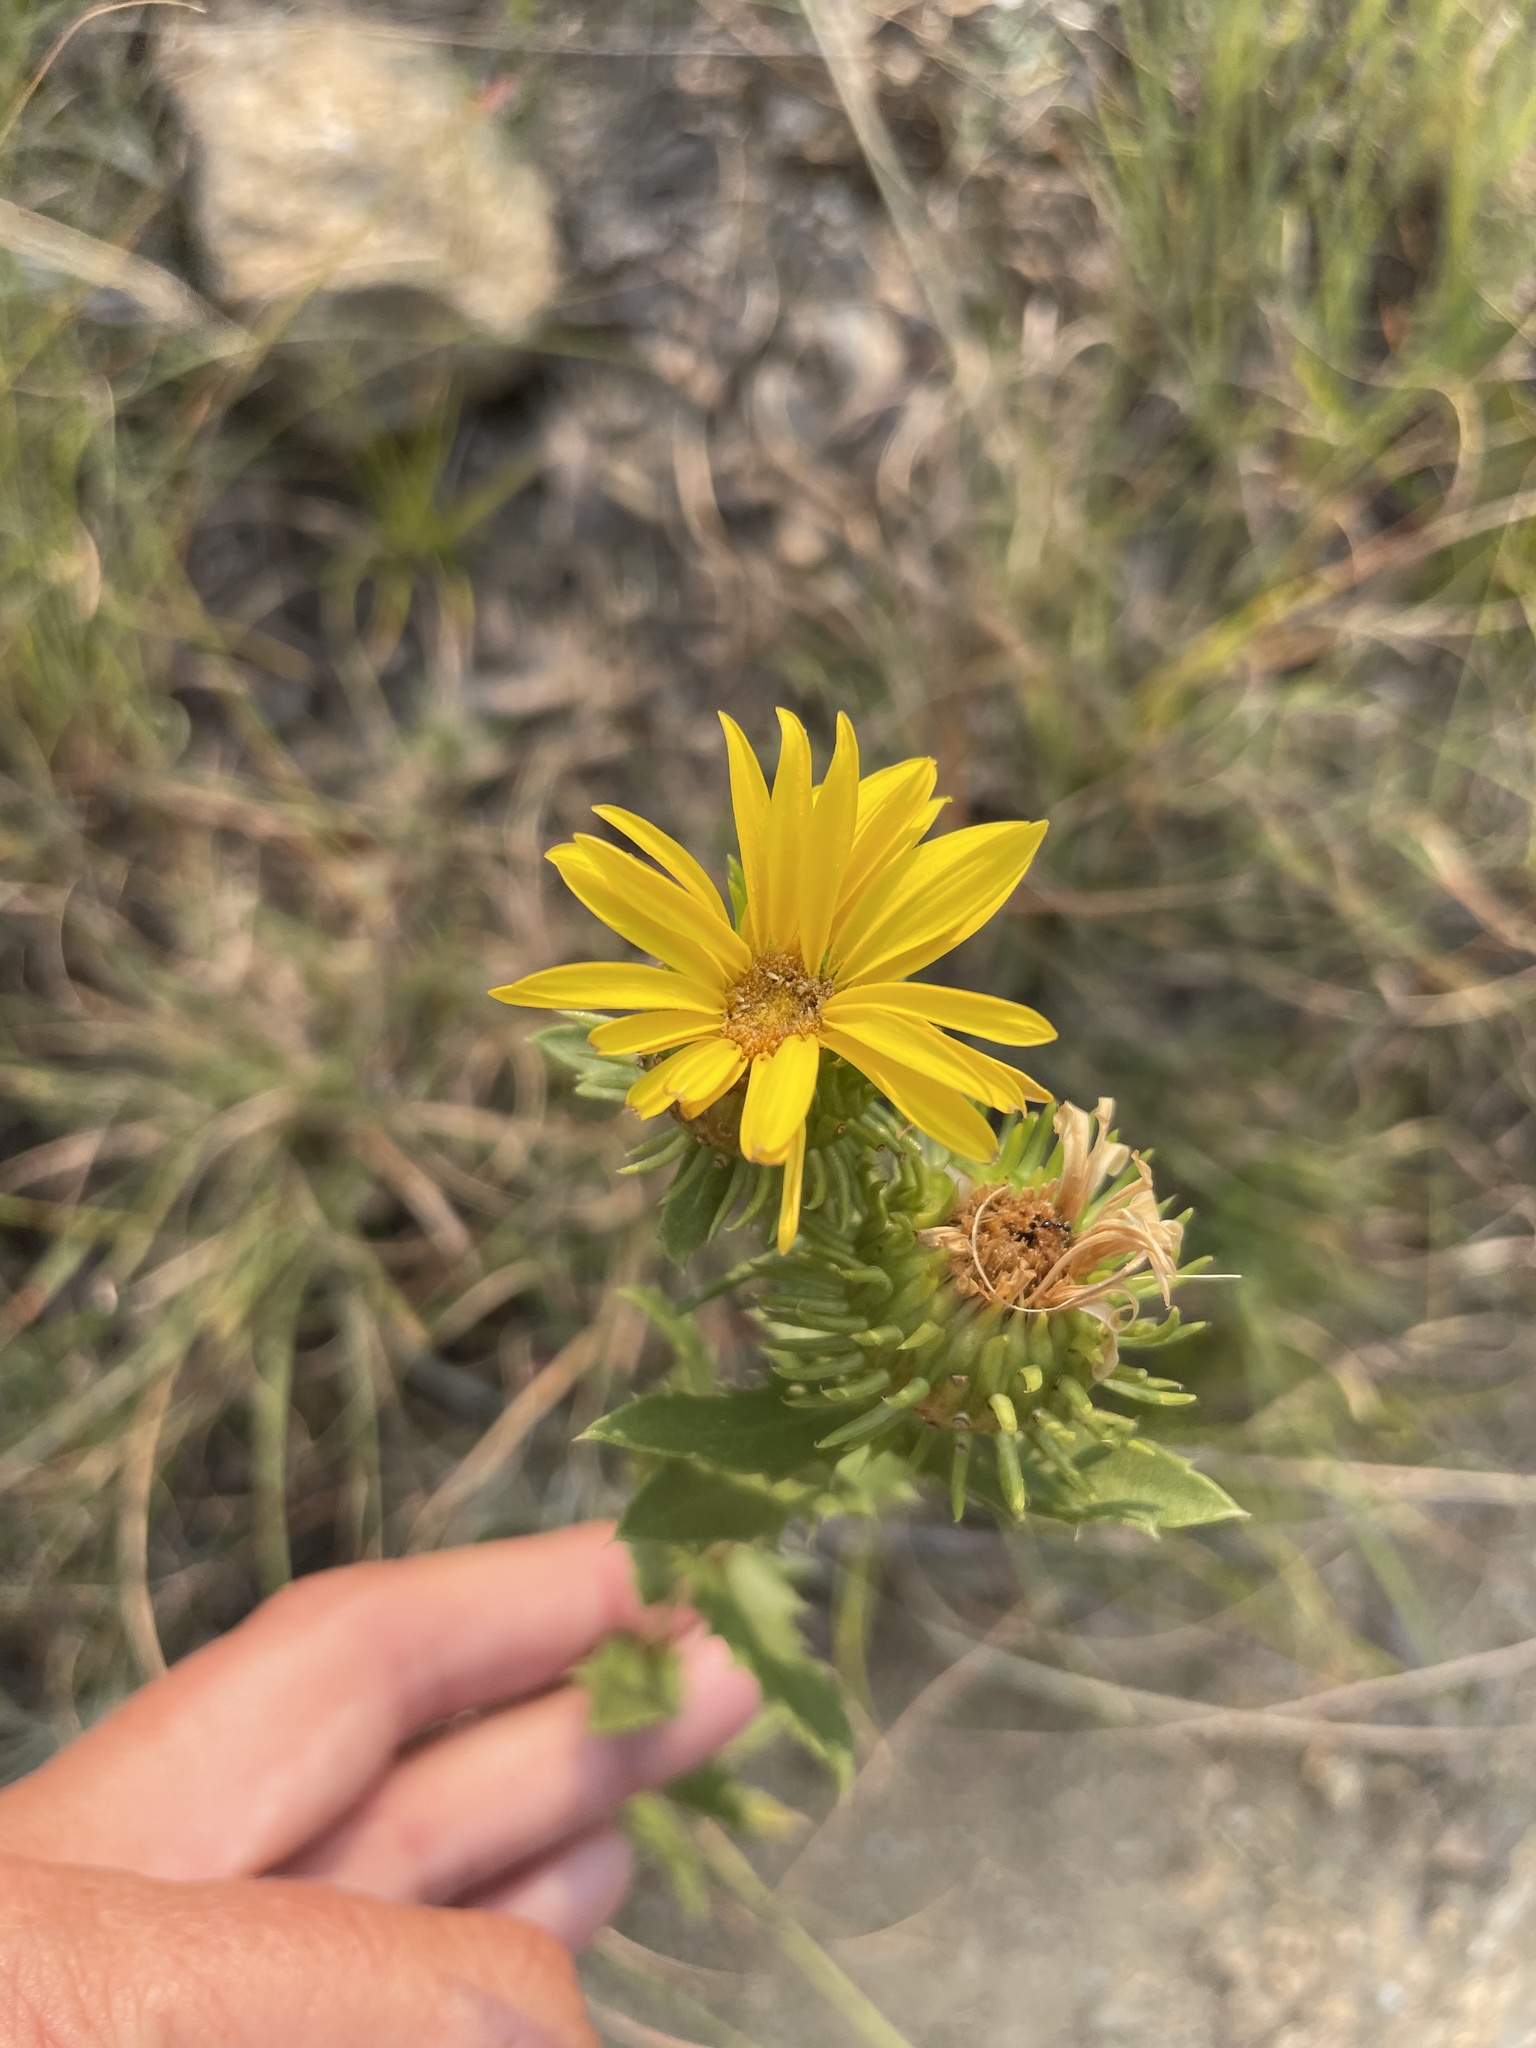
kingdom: Plantae
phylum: Tracheophyta
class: Magnoliopsida
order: Asterales
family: Asteraceae
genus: Grindelia
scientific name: Grindelia lanceolata
